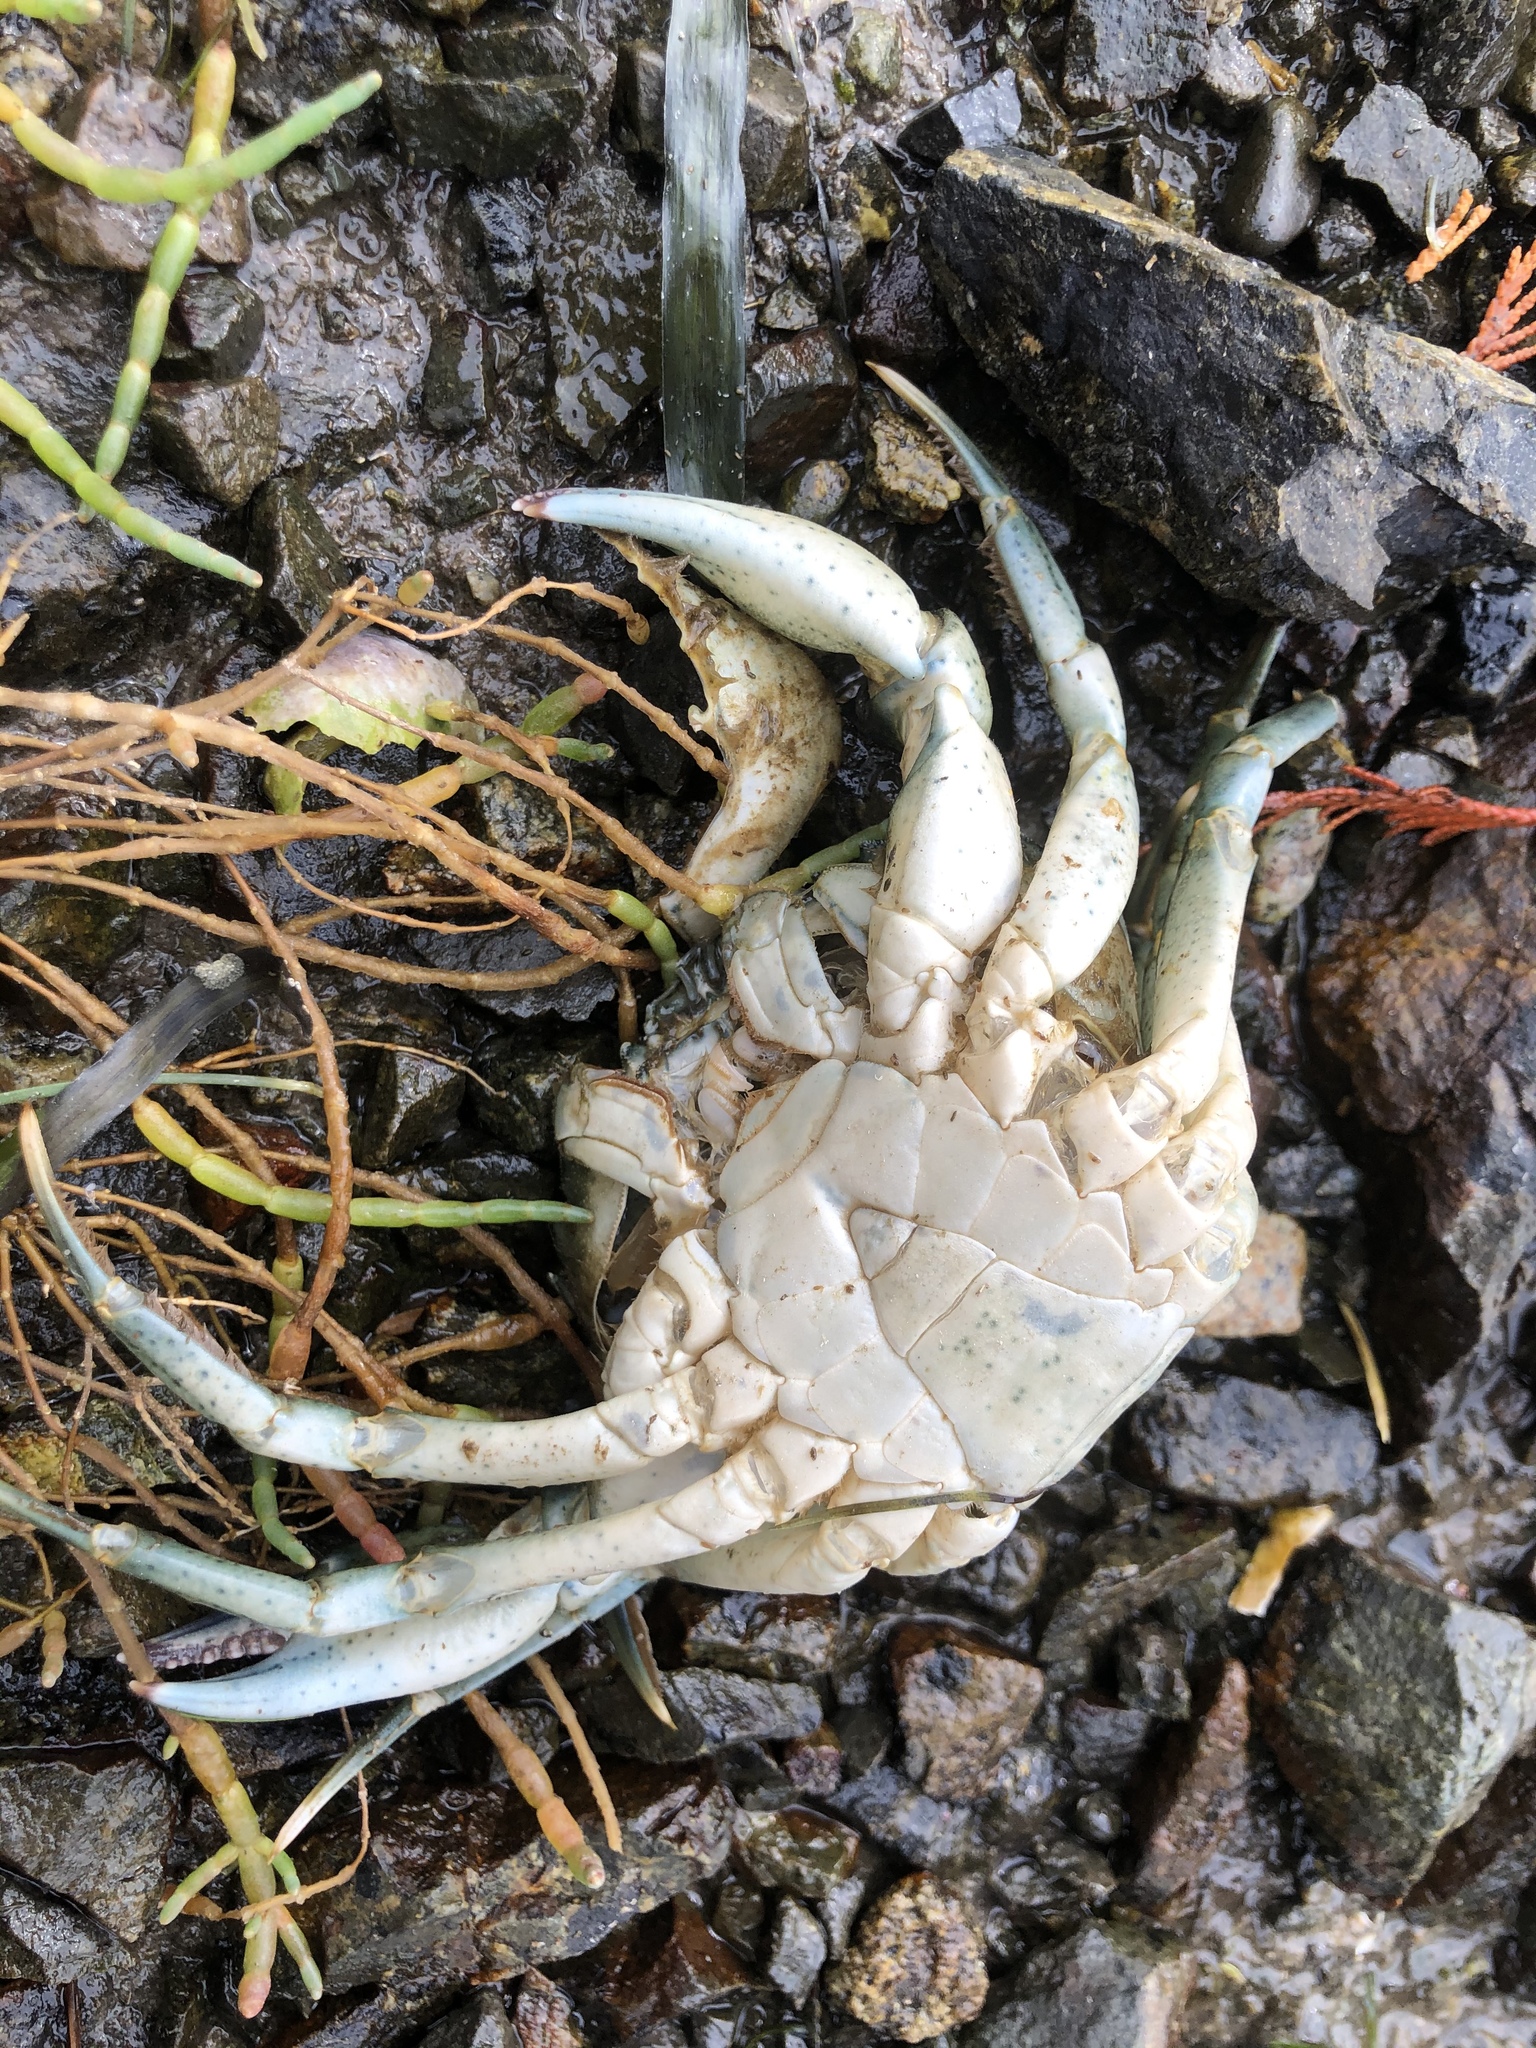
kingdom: Animalia
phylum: Arthropoda
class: Malacostraca
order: Decapoda
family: Carcinidae
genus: Carcinus
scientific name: Carcinus maenas
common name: European green crab
